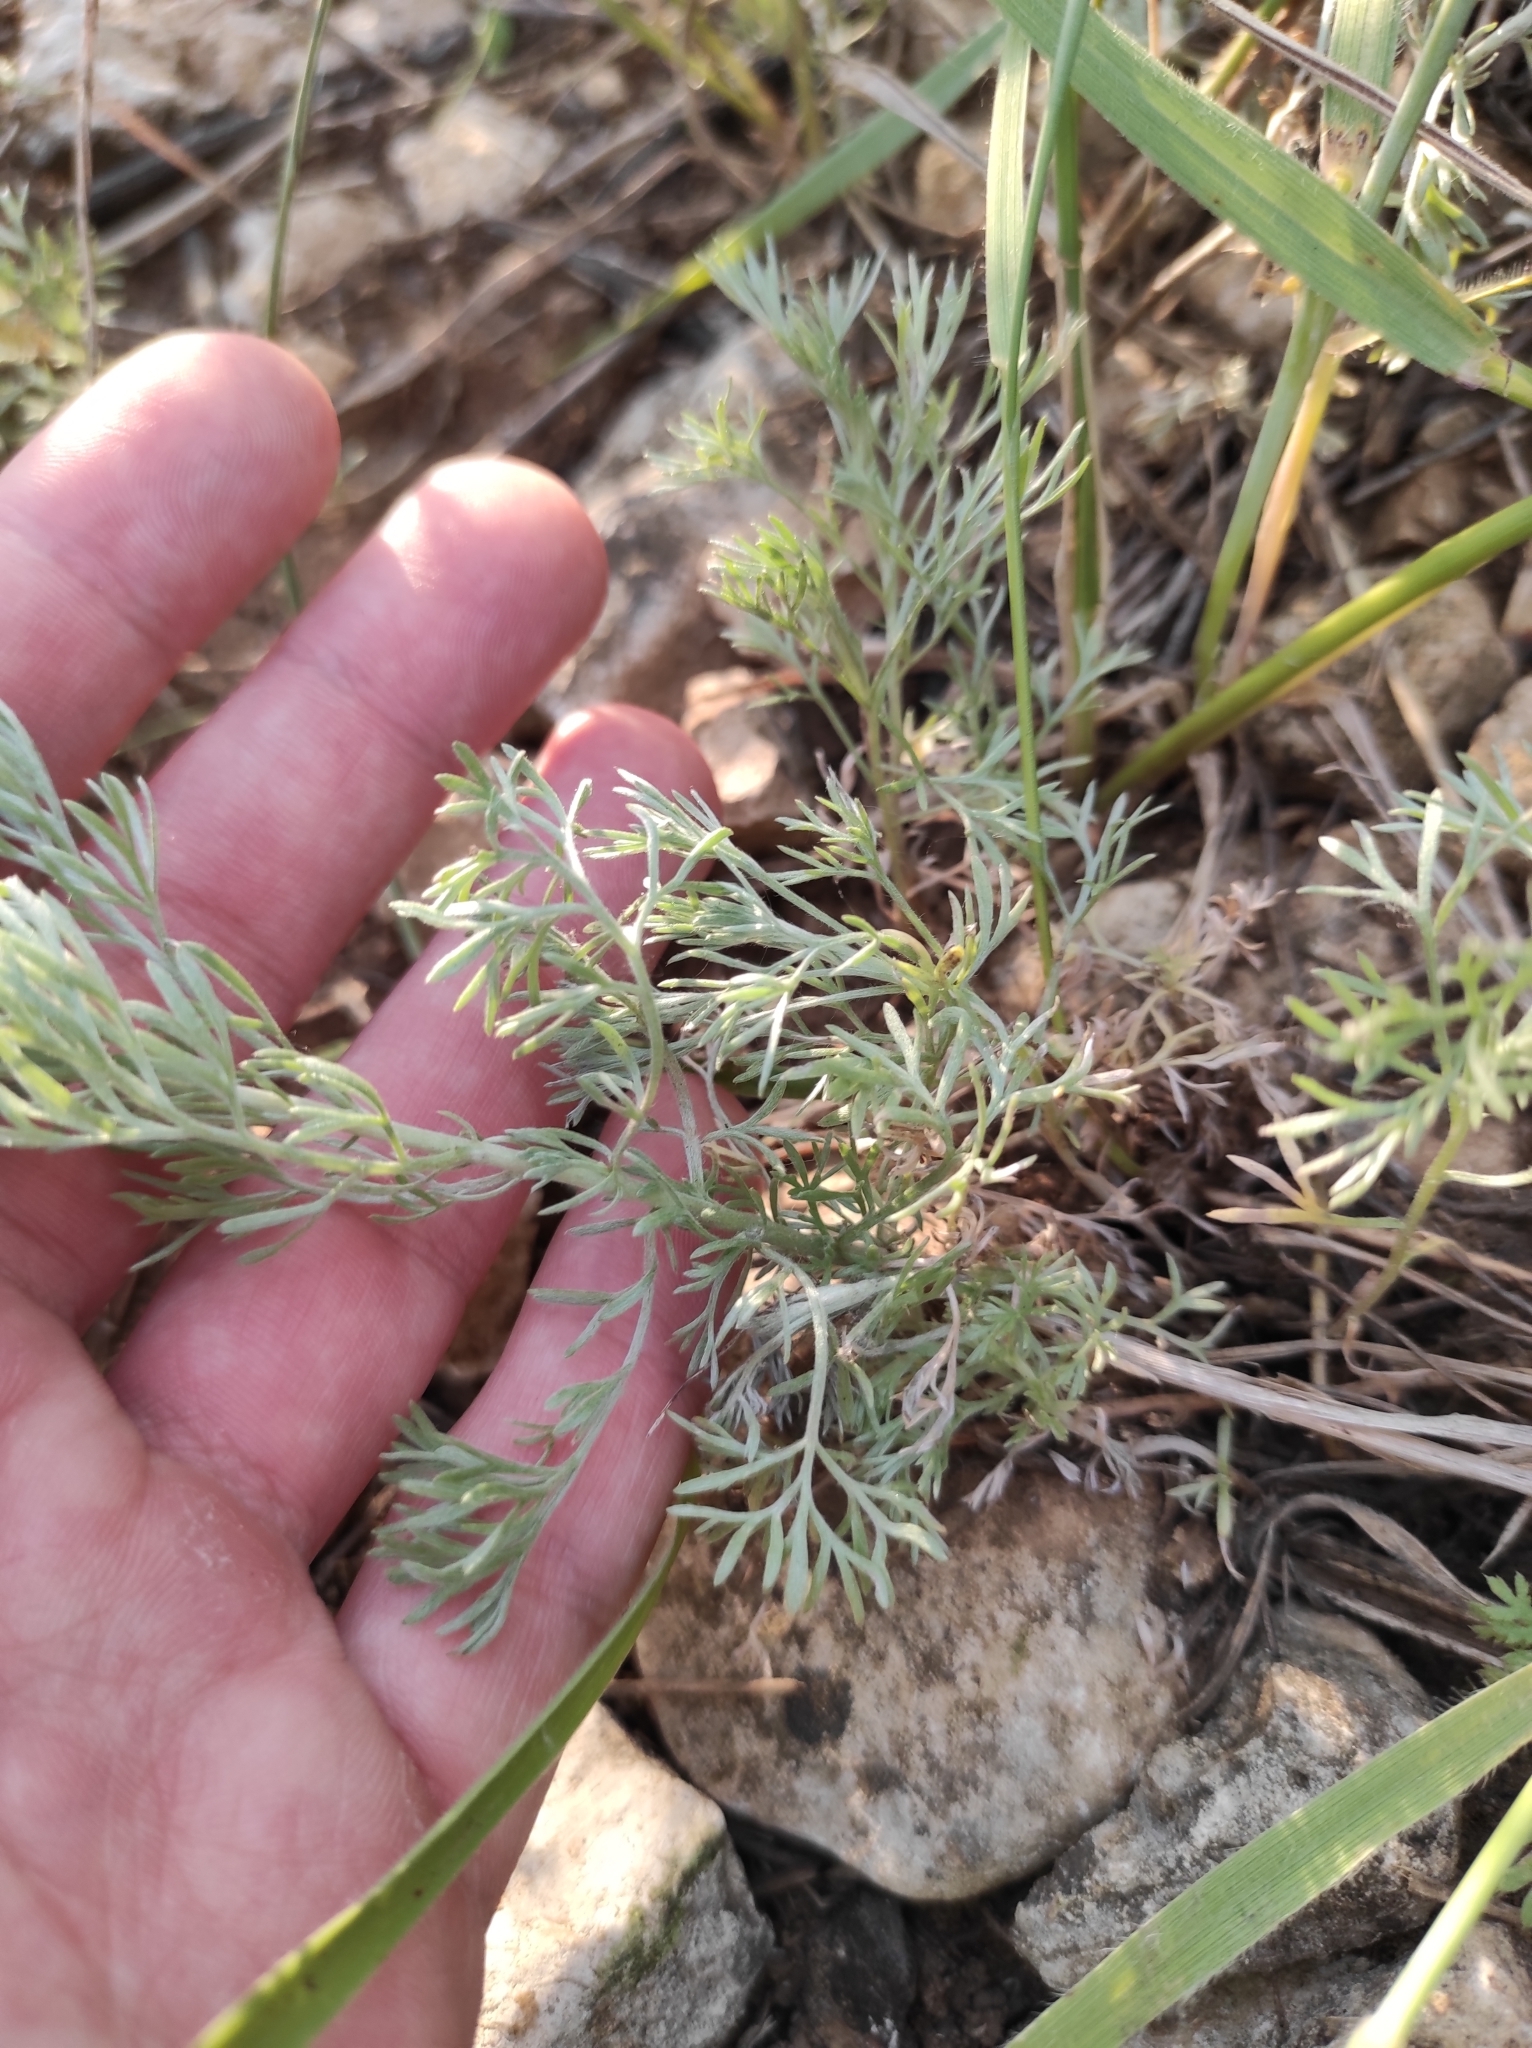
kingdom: Plantae
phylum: Tracheophyta
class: Magnoliopsida
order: Asterales
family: Asteraceae
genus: Artemisia
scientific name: Artemisia austriaca
